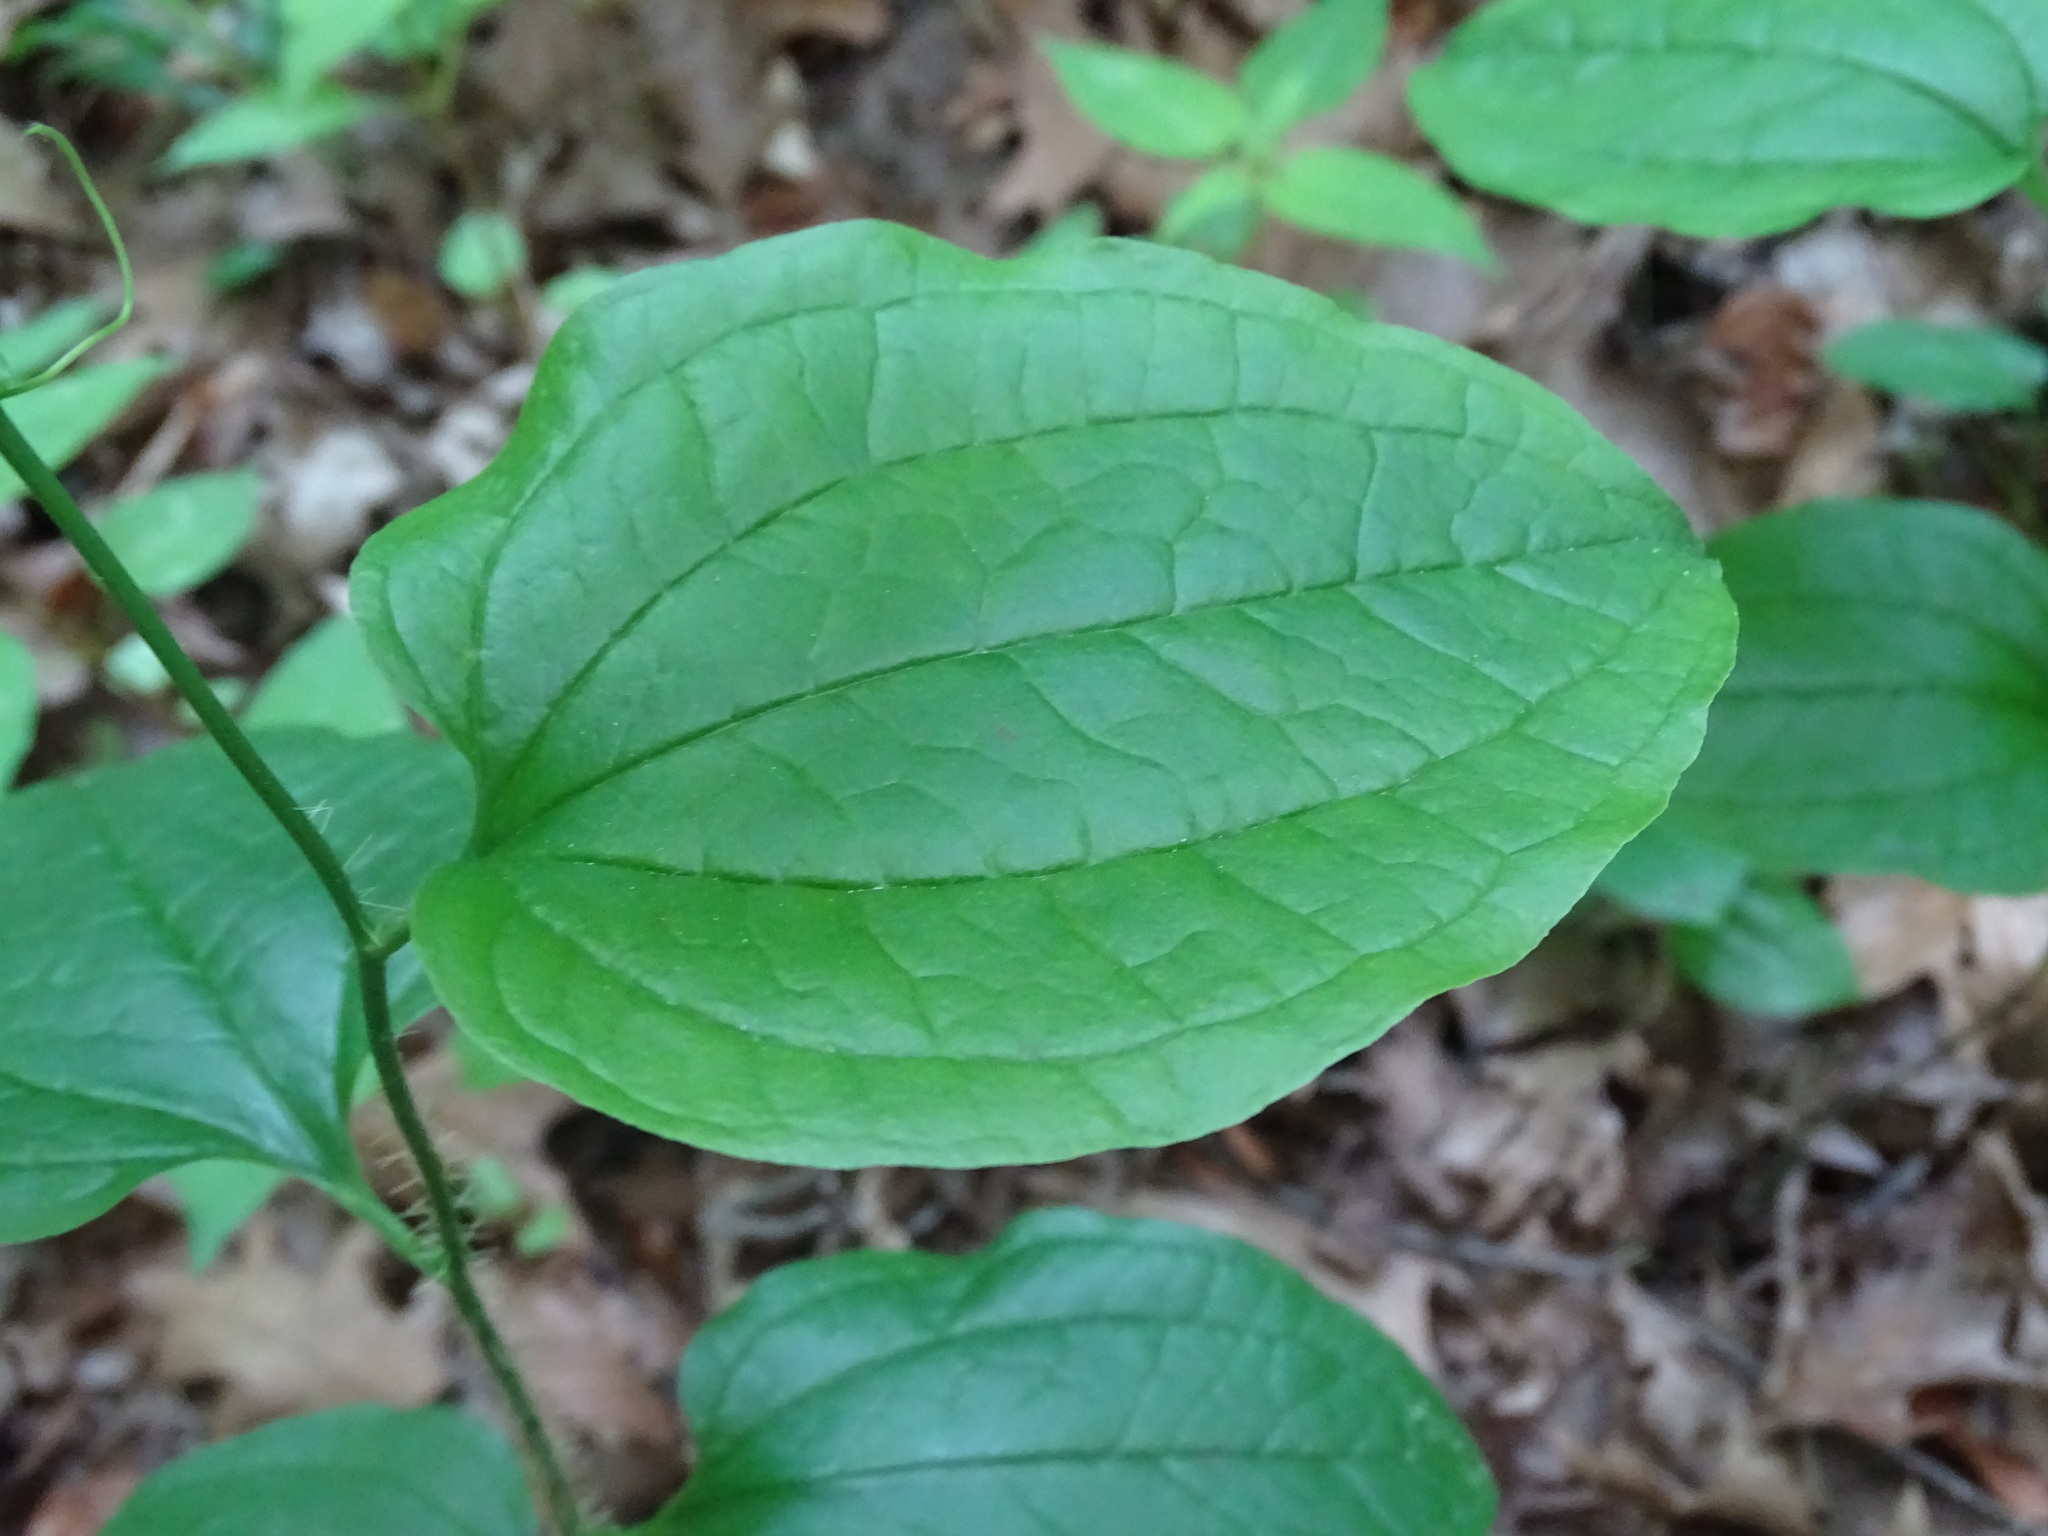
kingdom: Plantae
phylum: Tracheophyta
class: Liliopsida
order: Liliales
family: Smilacaceae
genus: Smilax
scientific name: Smilax tamnoides
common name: Hellfetter
